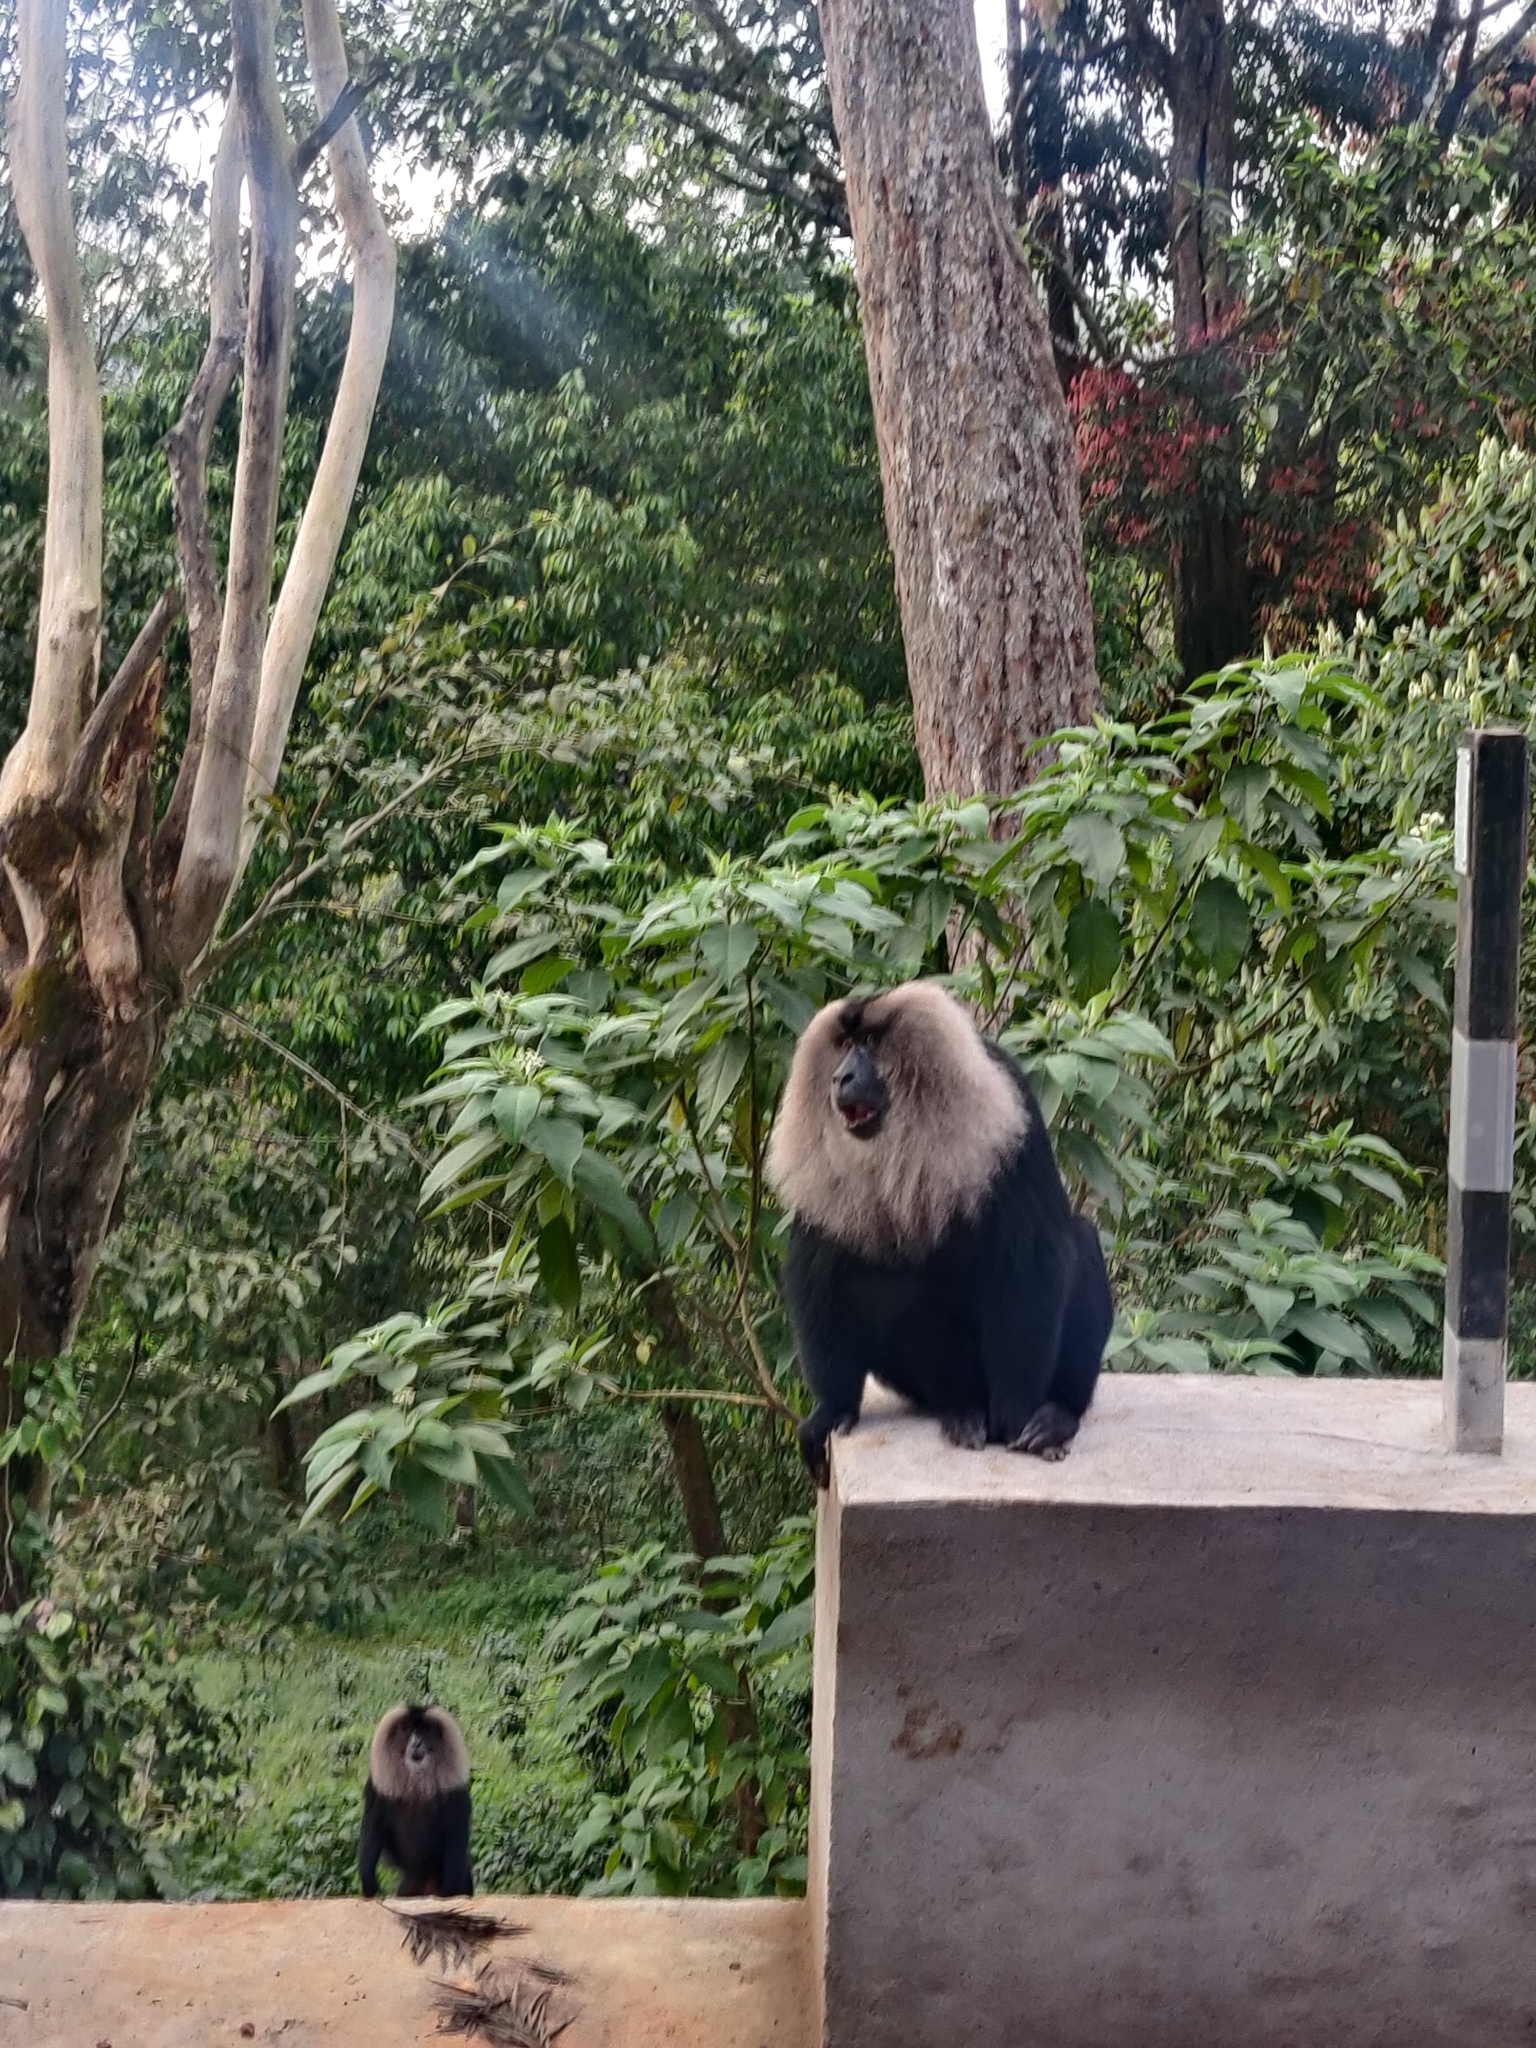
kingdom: Animalia
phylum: Chordata
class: Mammalia
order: Primates
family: Cercopithecidae
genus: Macaca
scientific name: Macaca silenus
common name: Lion-tailed macaque
